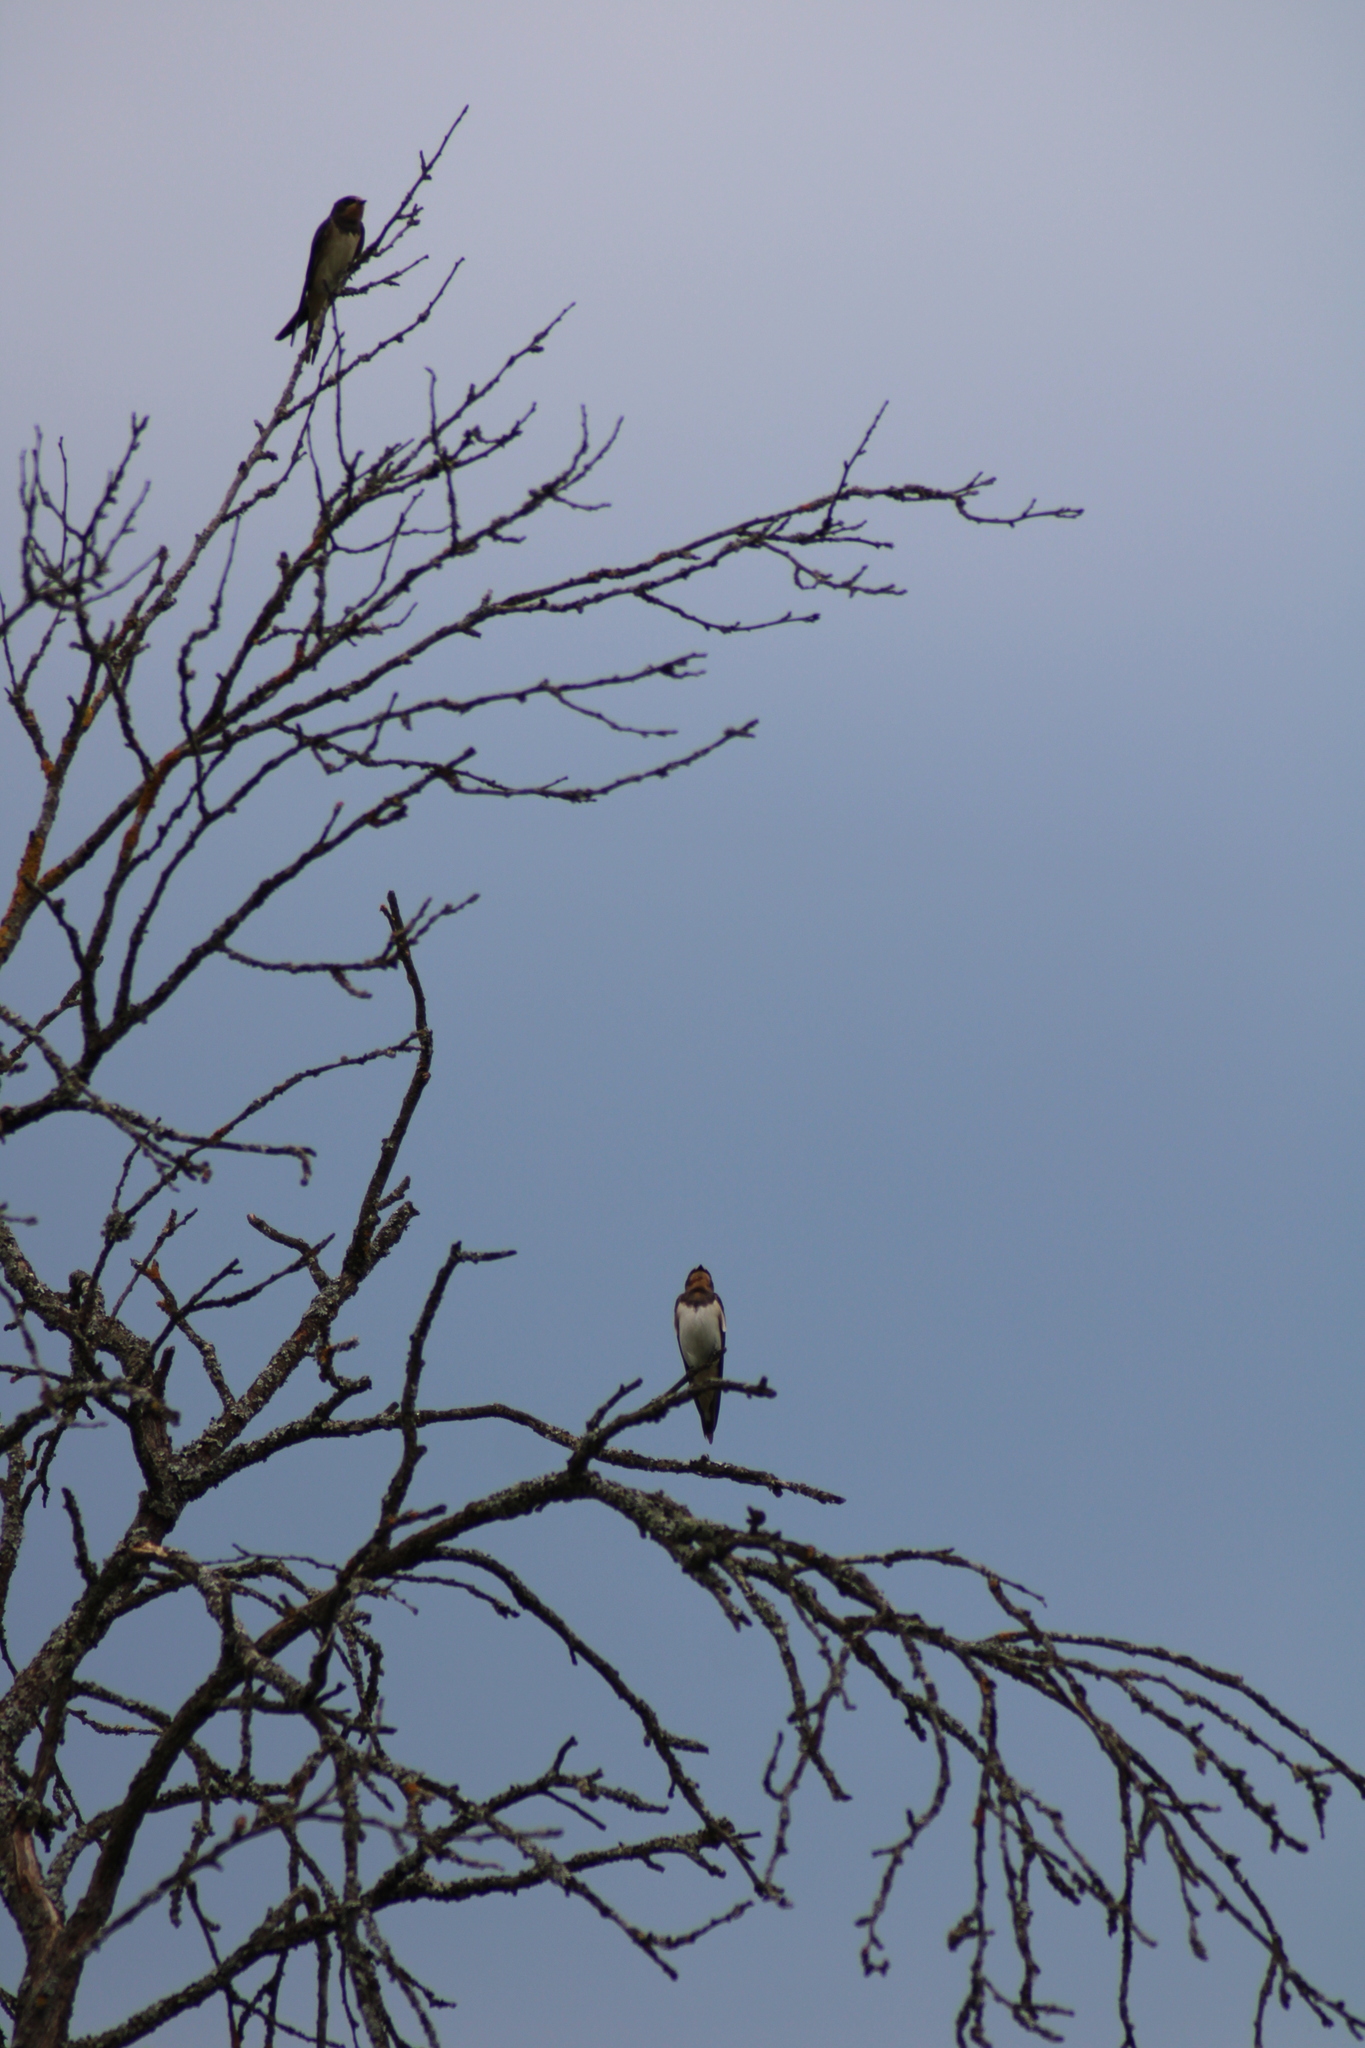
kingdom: Animalia
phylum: Chordata
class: Aves
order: Passeriformes
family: Hirundinidae
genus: Hirundo
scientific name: Hirundo rustica
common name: Barn swallow
